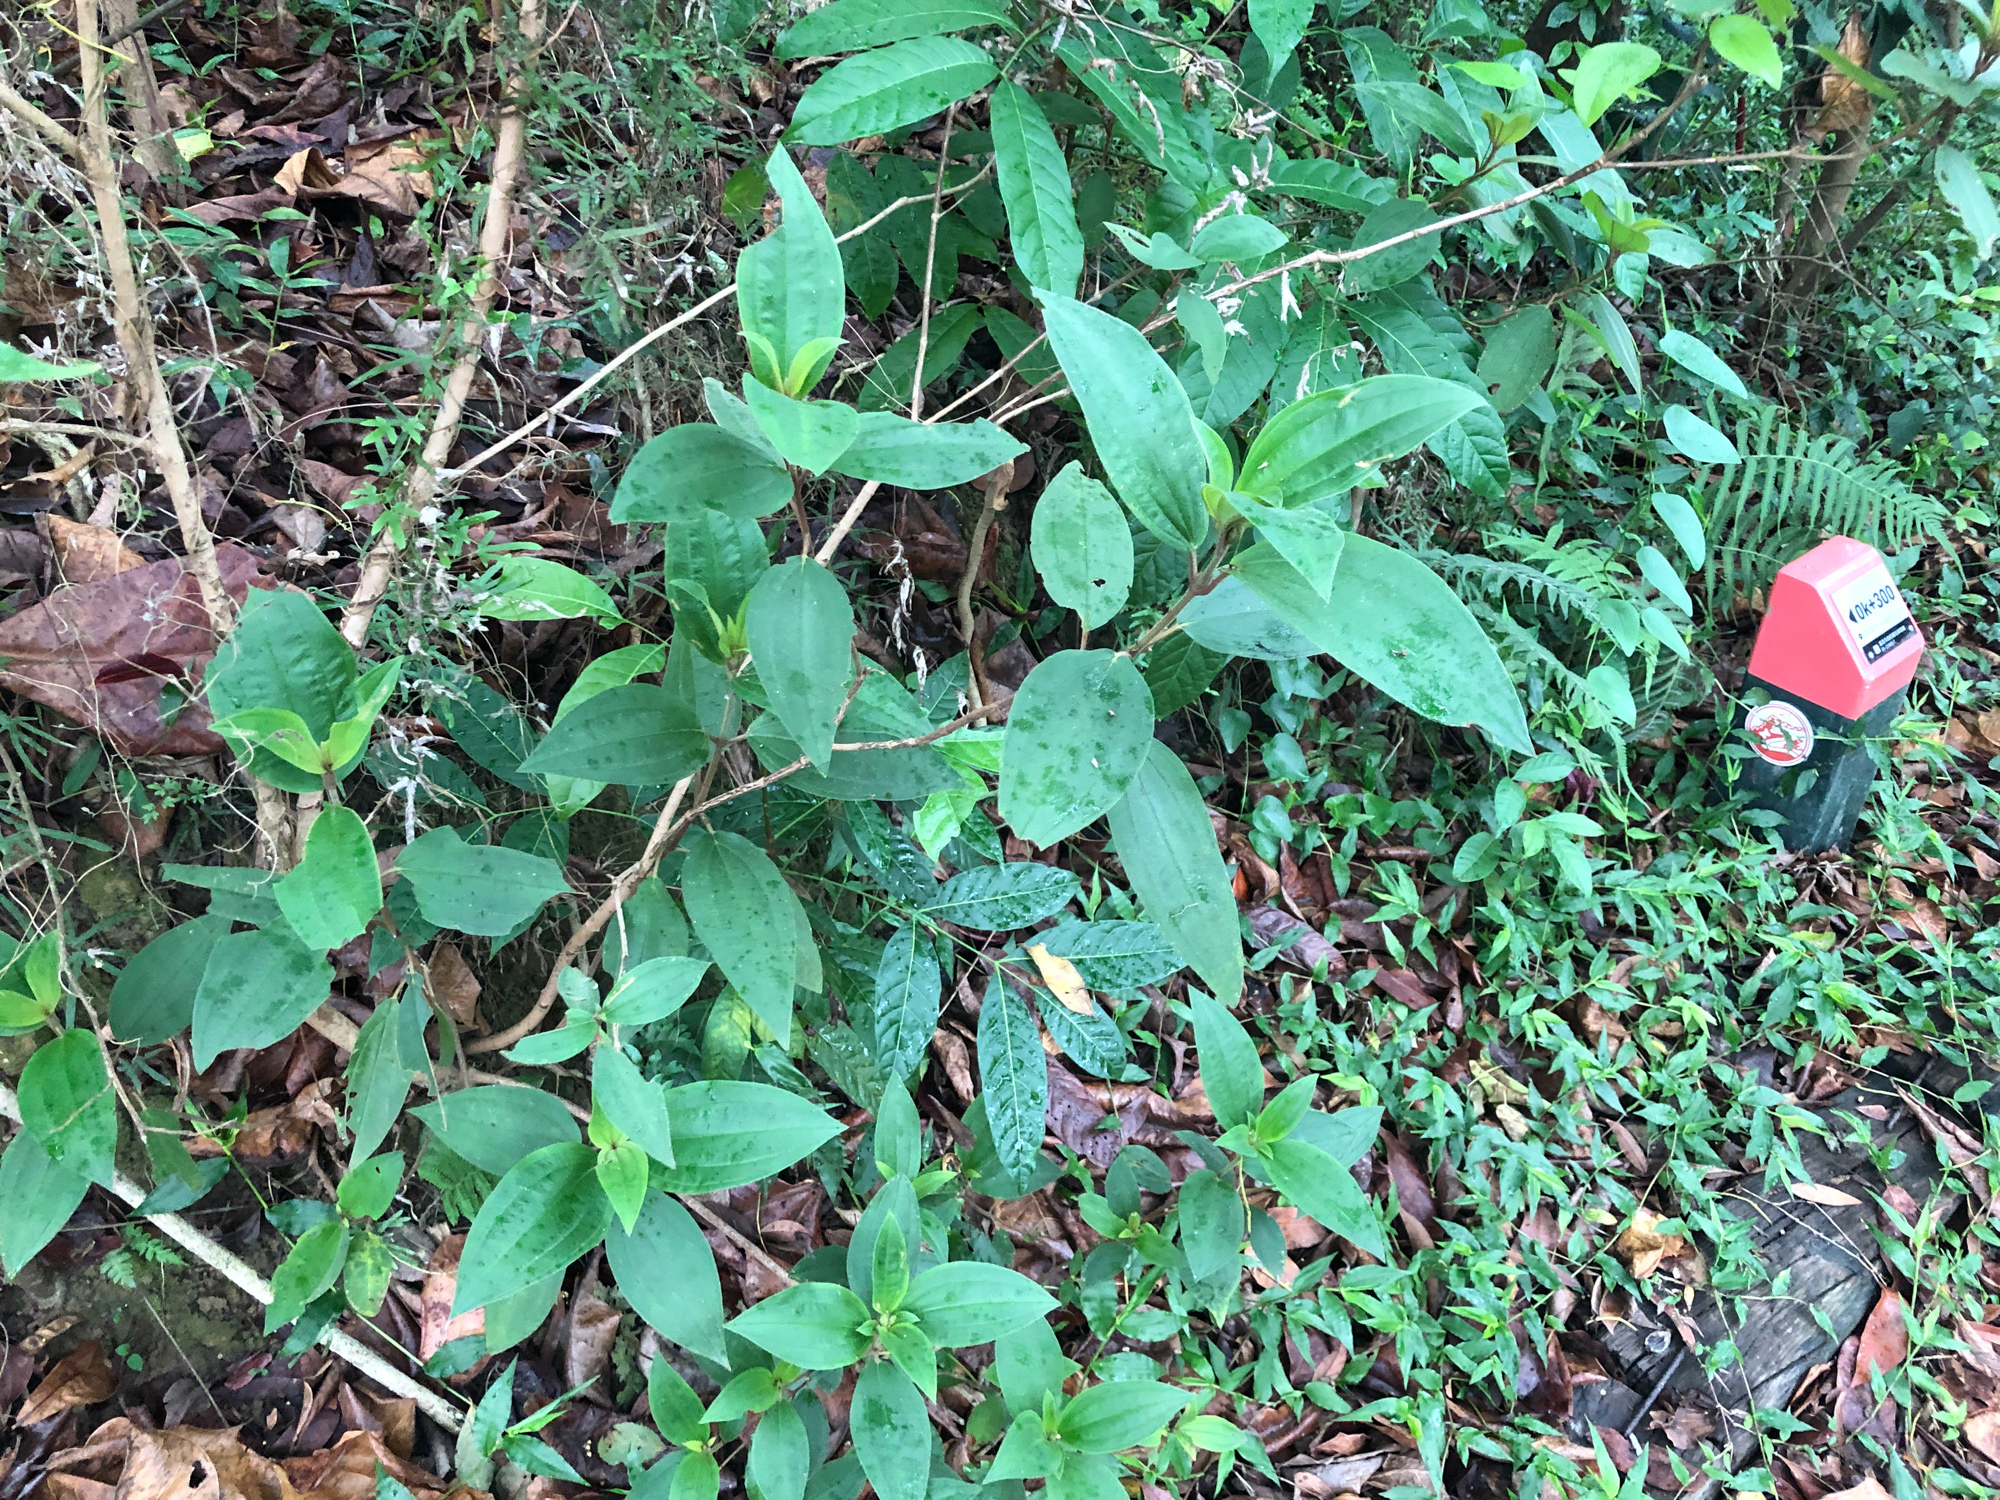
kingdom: Plantae
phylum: Tracheophyta
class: Magnoliopsida
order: Myrtales
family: Melastomataceae
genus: Melastoma
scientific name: Melastoma malabathricum
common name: Indian-rhododendron
